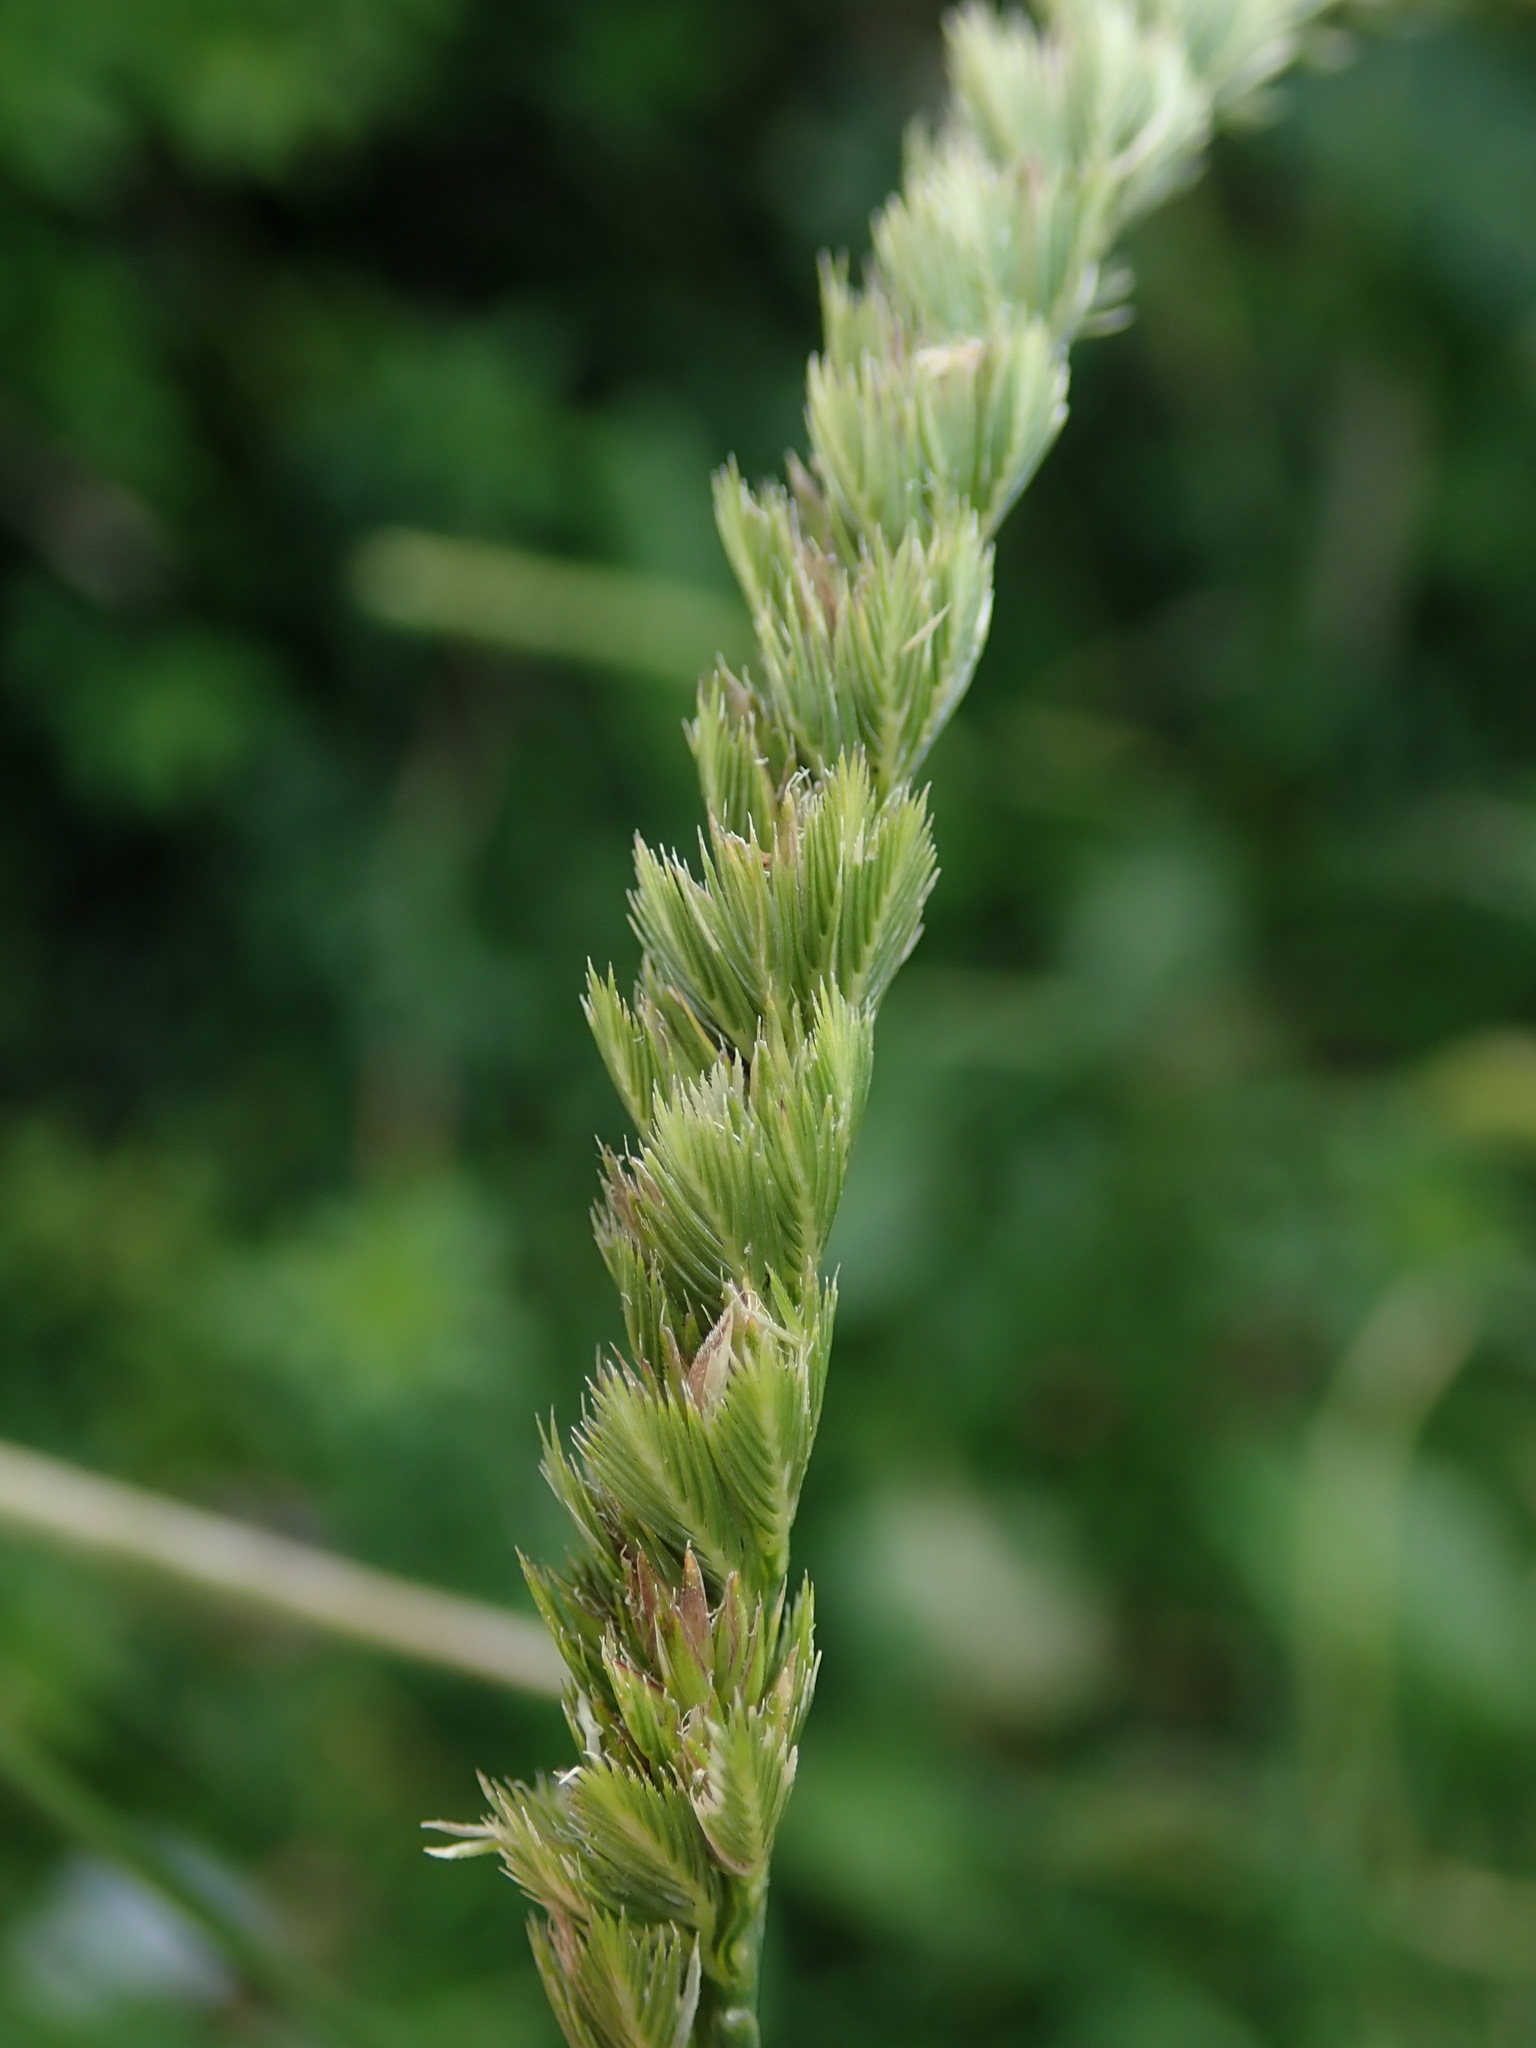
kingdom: Plantae
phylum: Tracheophyta
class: Liliopsida
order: Poales
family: Poaceae
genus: Cynosurus
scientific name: Cynosurus cristatus
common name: Crested dog's-tail
